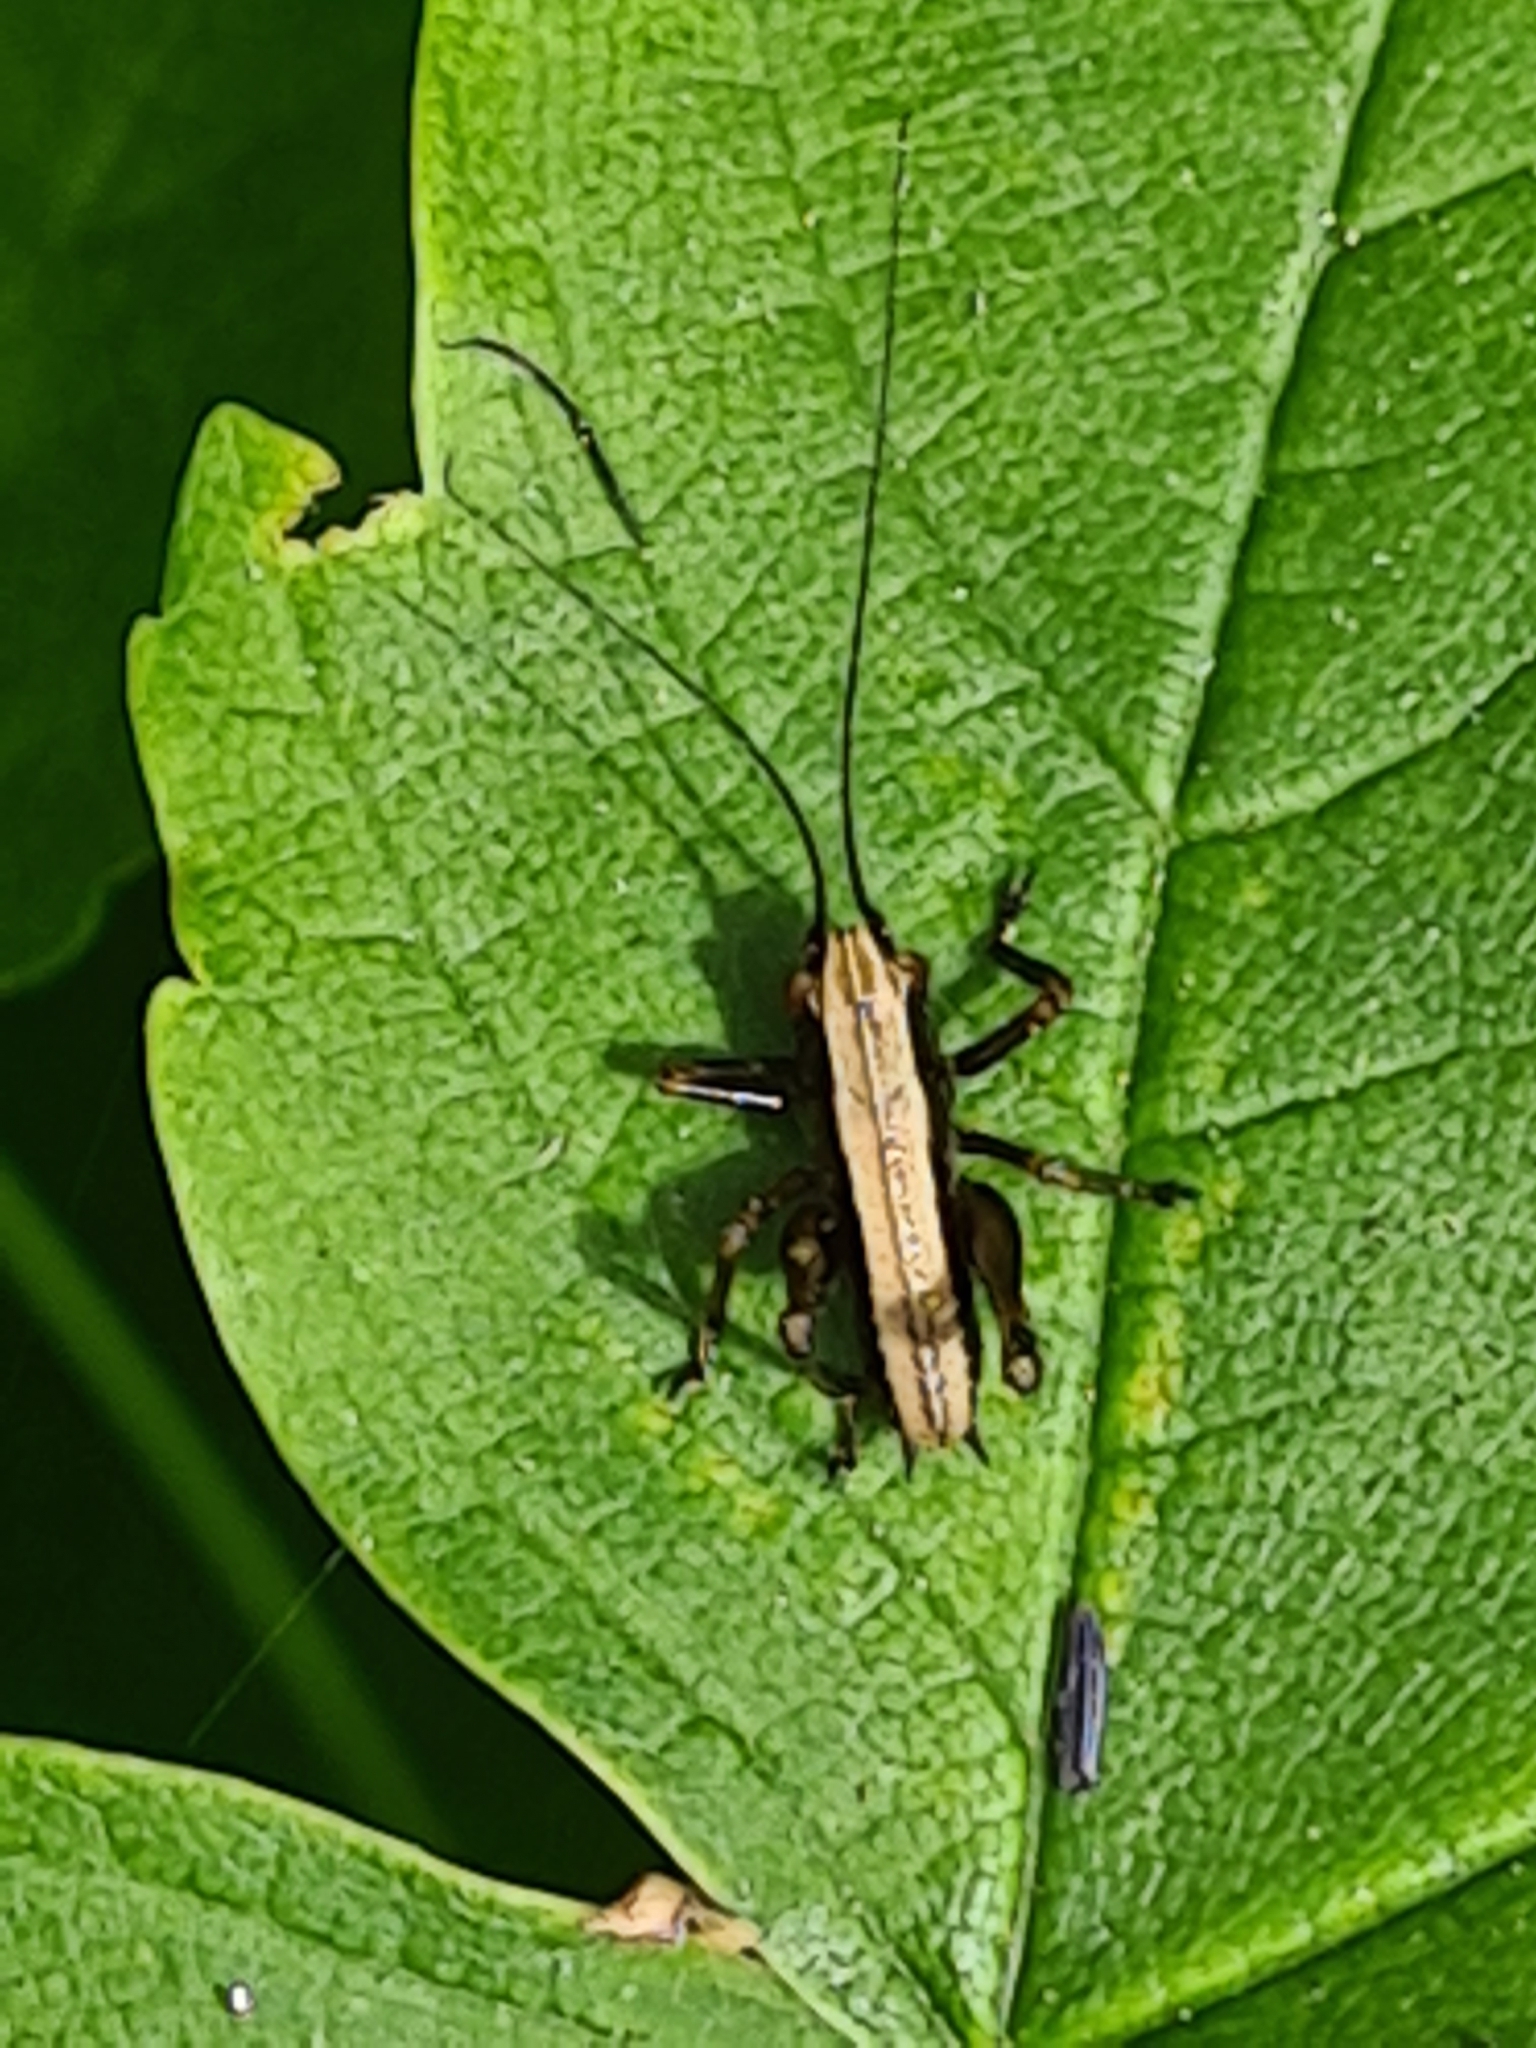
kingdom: Animalia
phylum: Arthropoda
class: Insecta
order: Orthoptera
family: Tettigoniidae
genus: Pholidoptera
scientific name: Pholidoptera griseoaptera
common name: Dark bush-cricket
